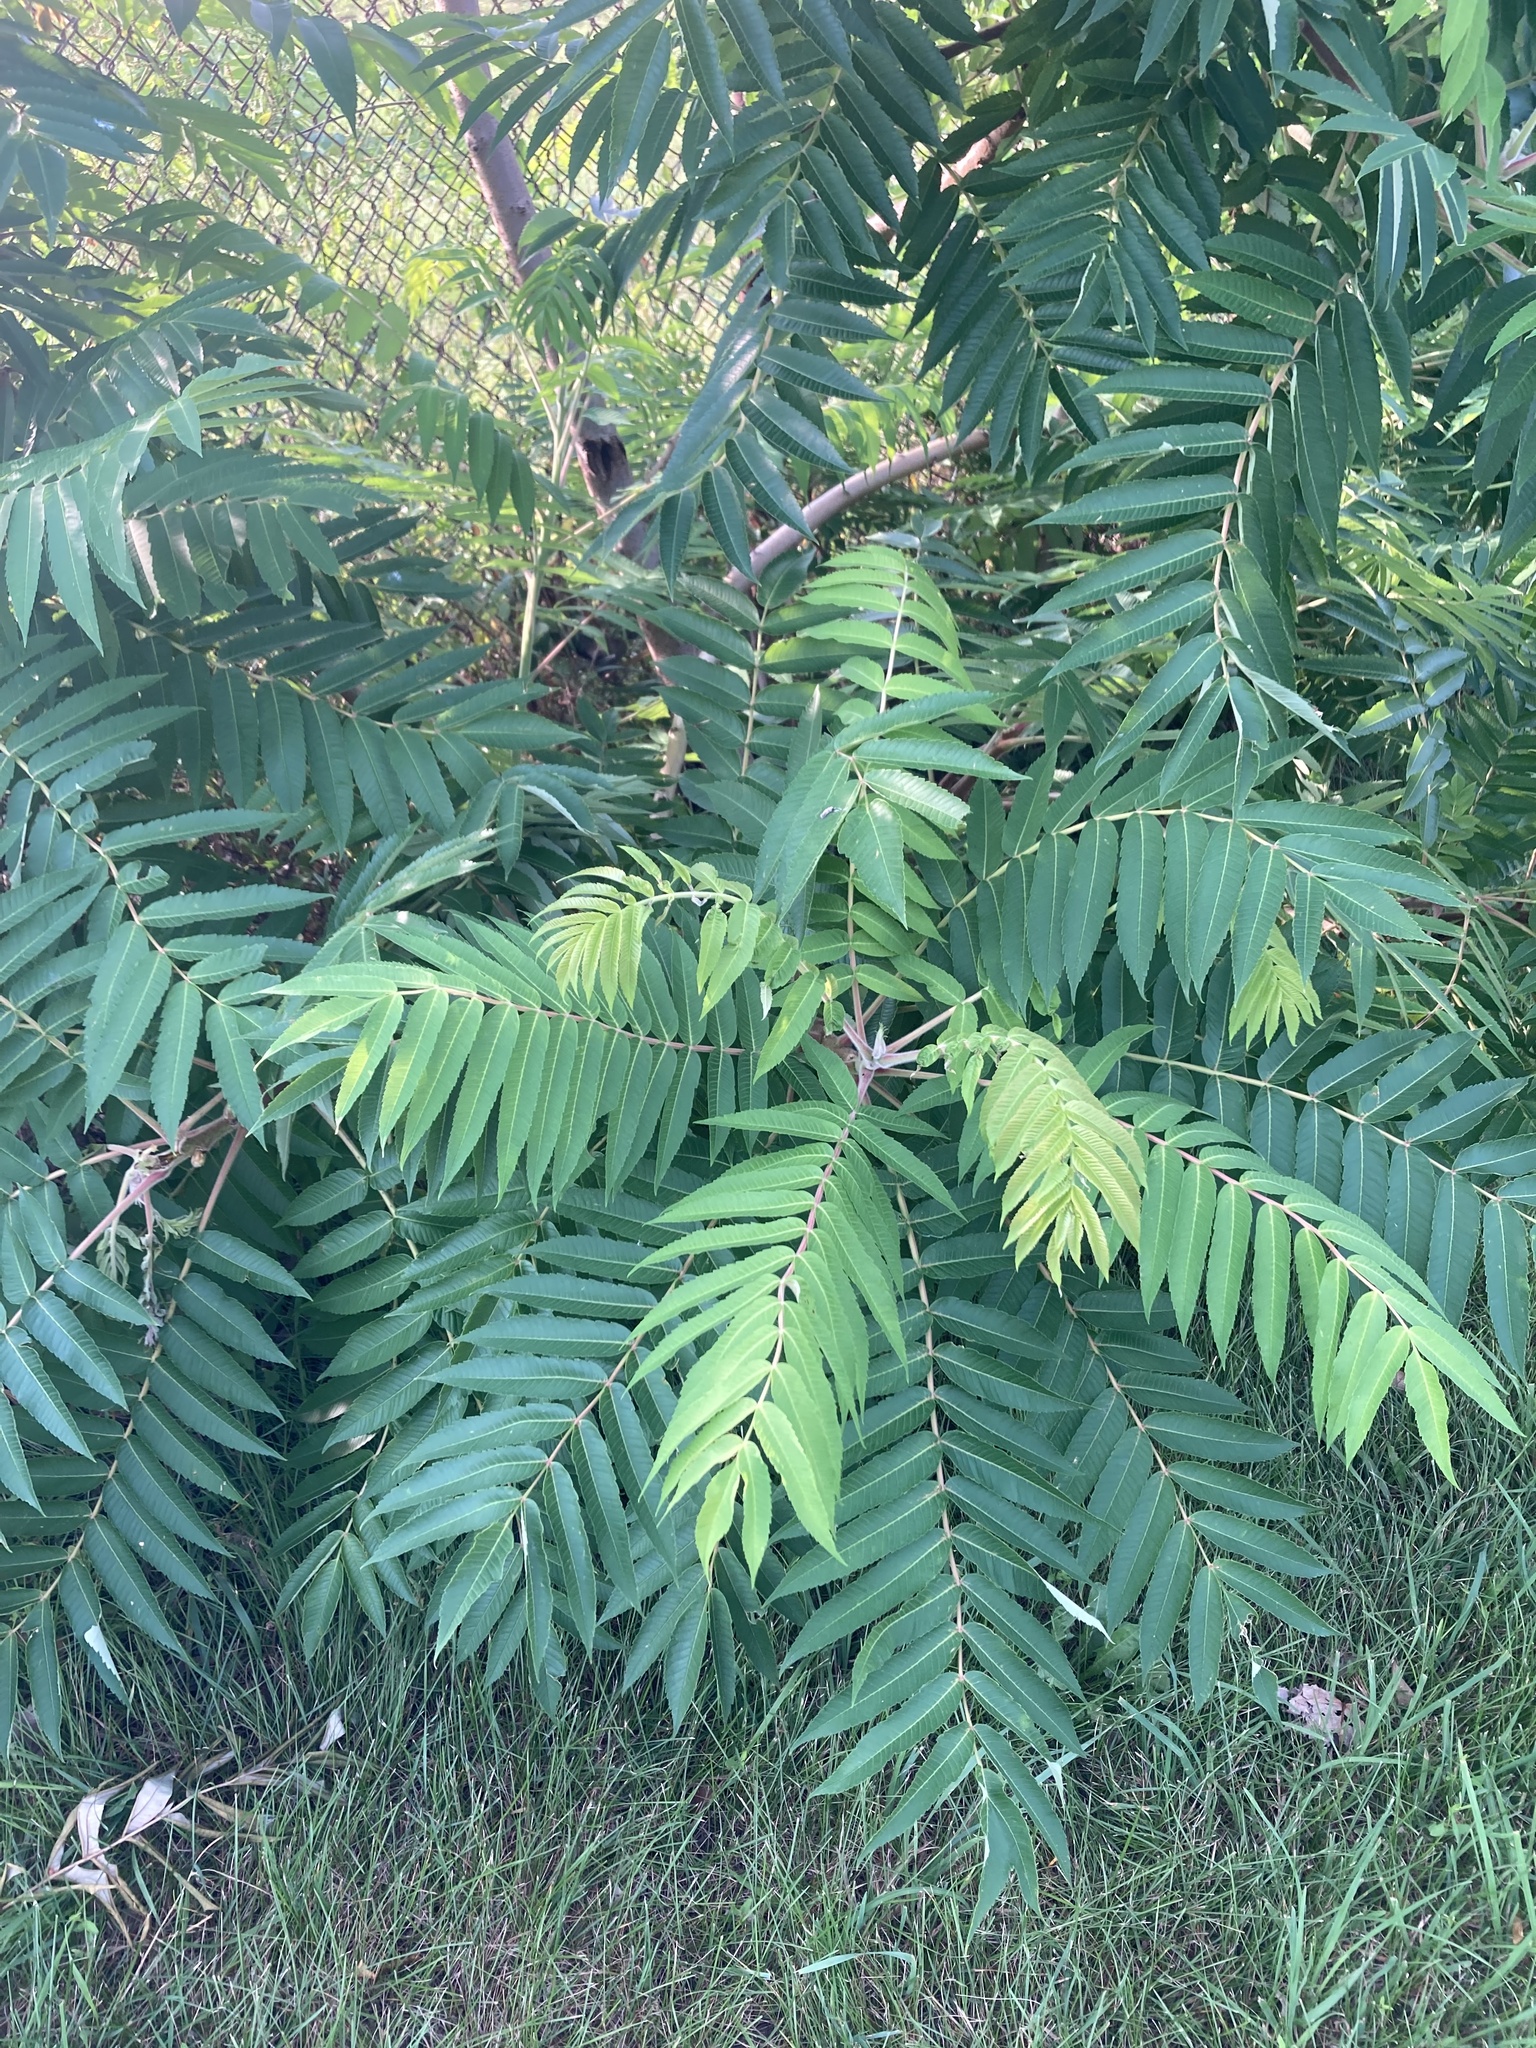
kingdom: Plantae
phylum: Tracheophyta
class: Magnoliopsida
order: Sapindales
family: Anacardiaceae
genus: Rhus
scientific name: Rhus typhina
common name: Staghorn sumac
